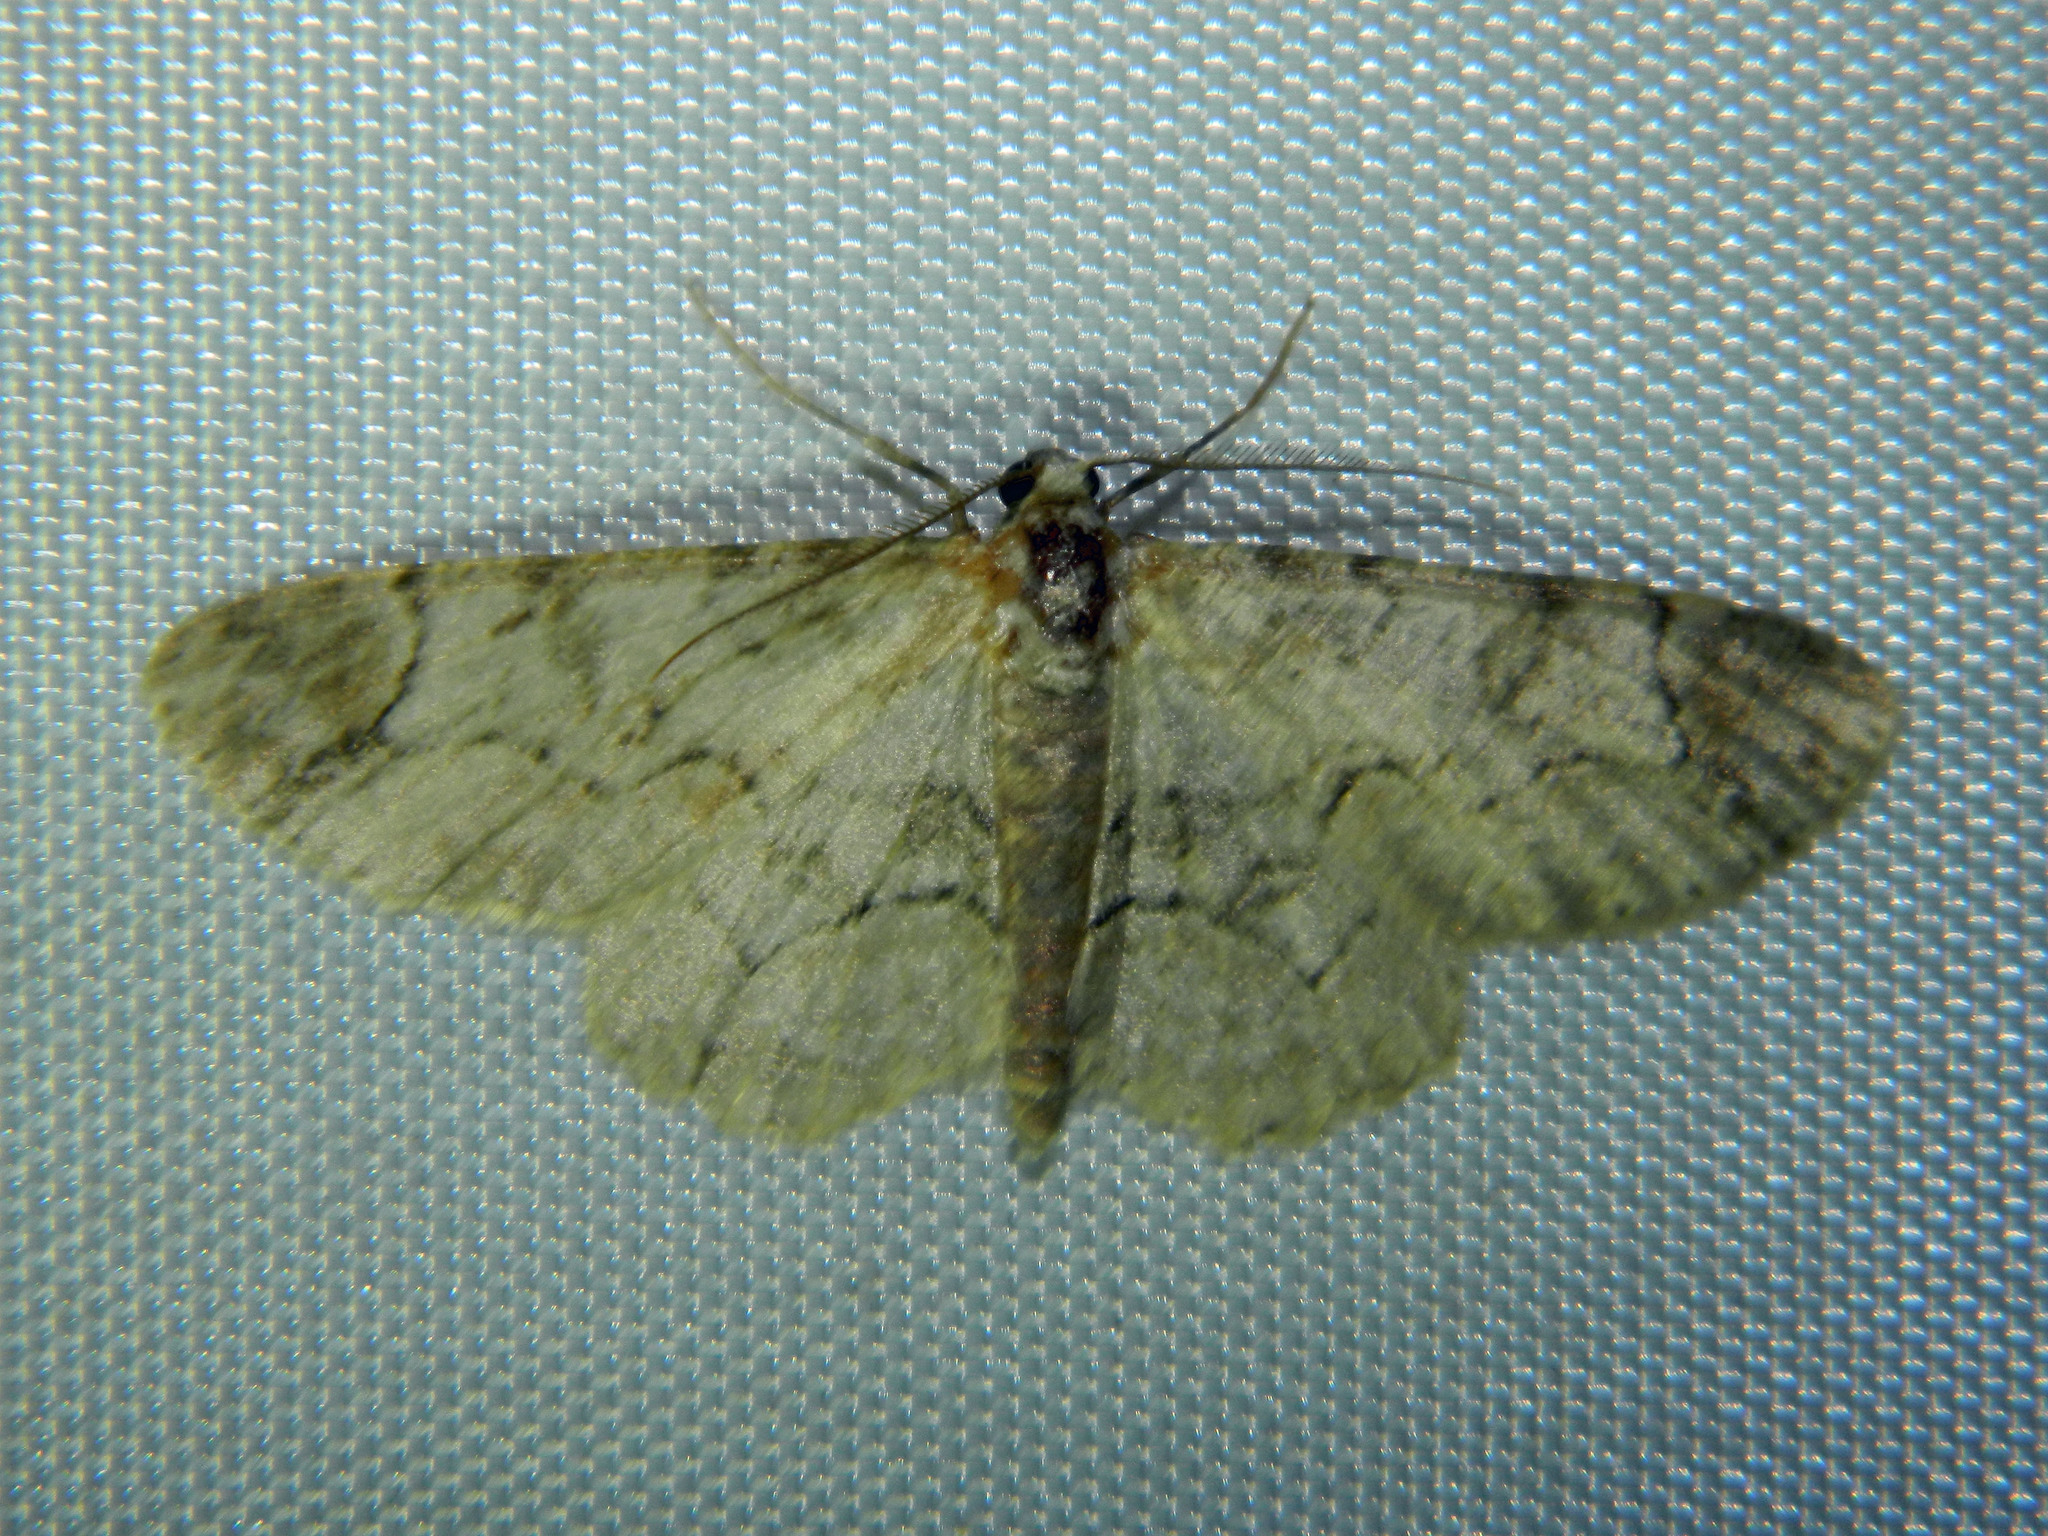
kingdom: Animalia
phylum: Arthropoda
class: Insecta
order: Lepidoptera
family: Geometridae
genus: Iridopsis
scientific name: Iridopsis larvaria
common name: Bent-line gray
